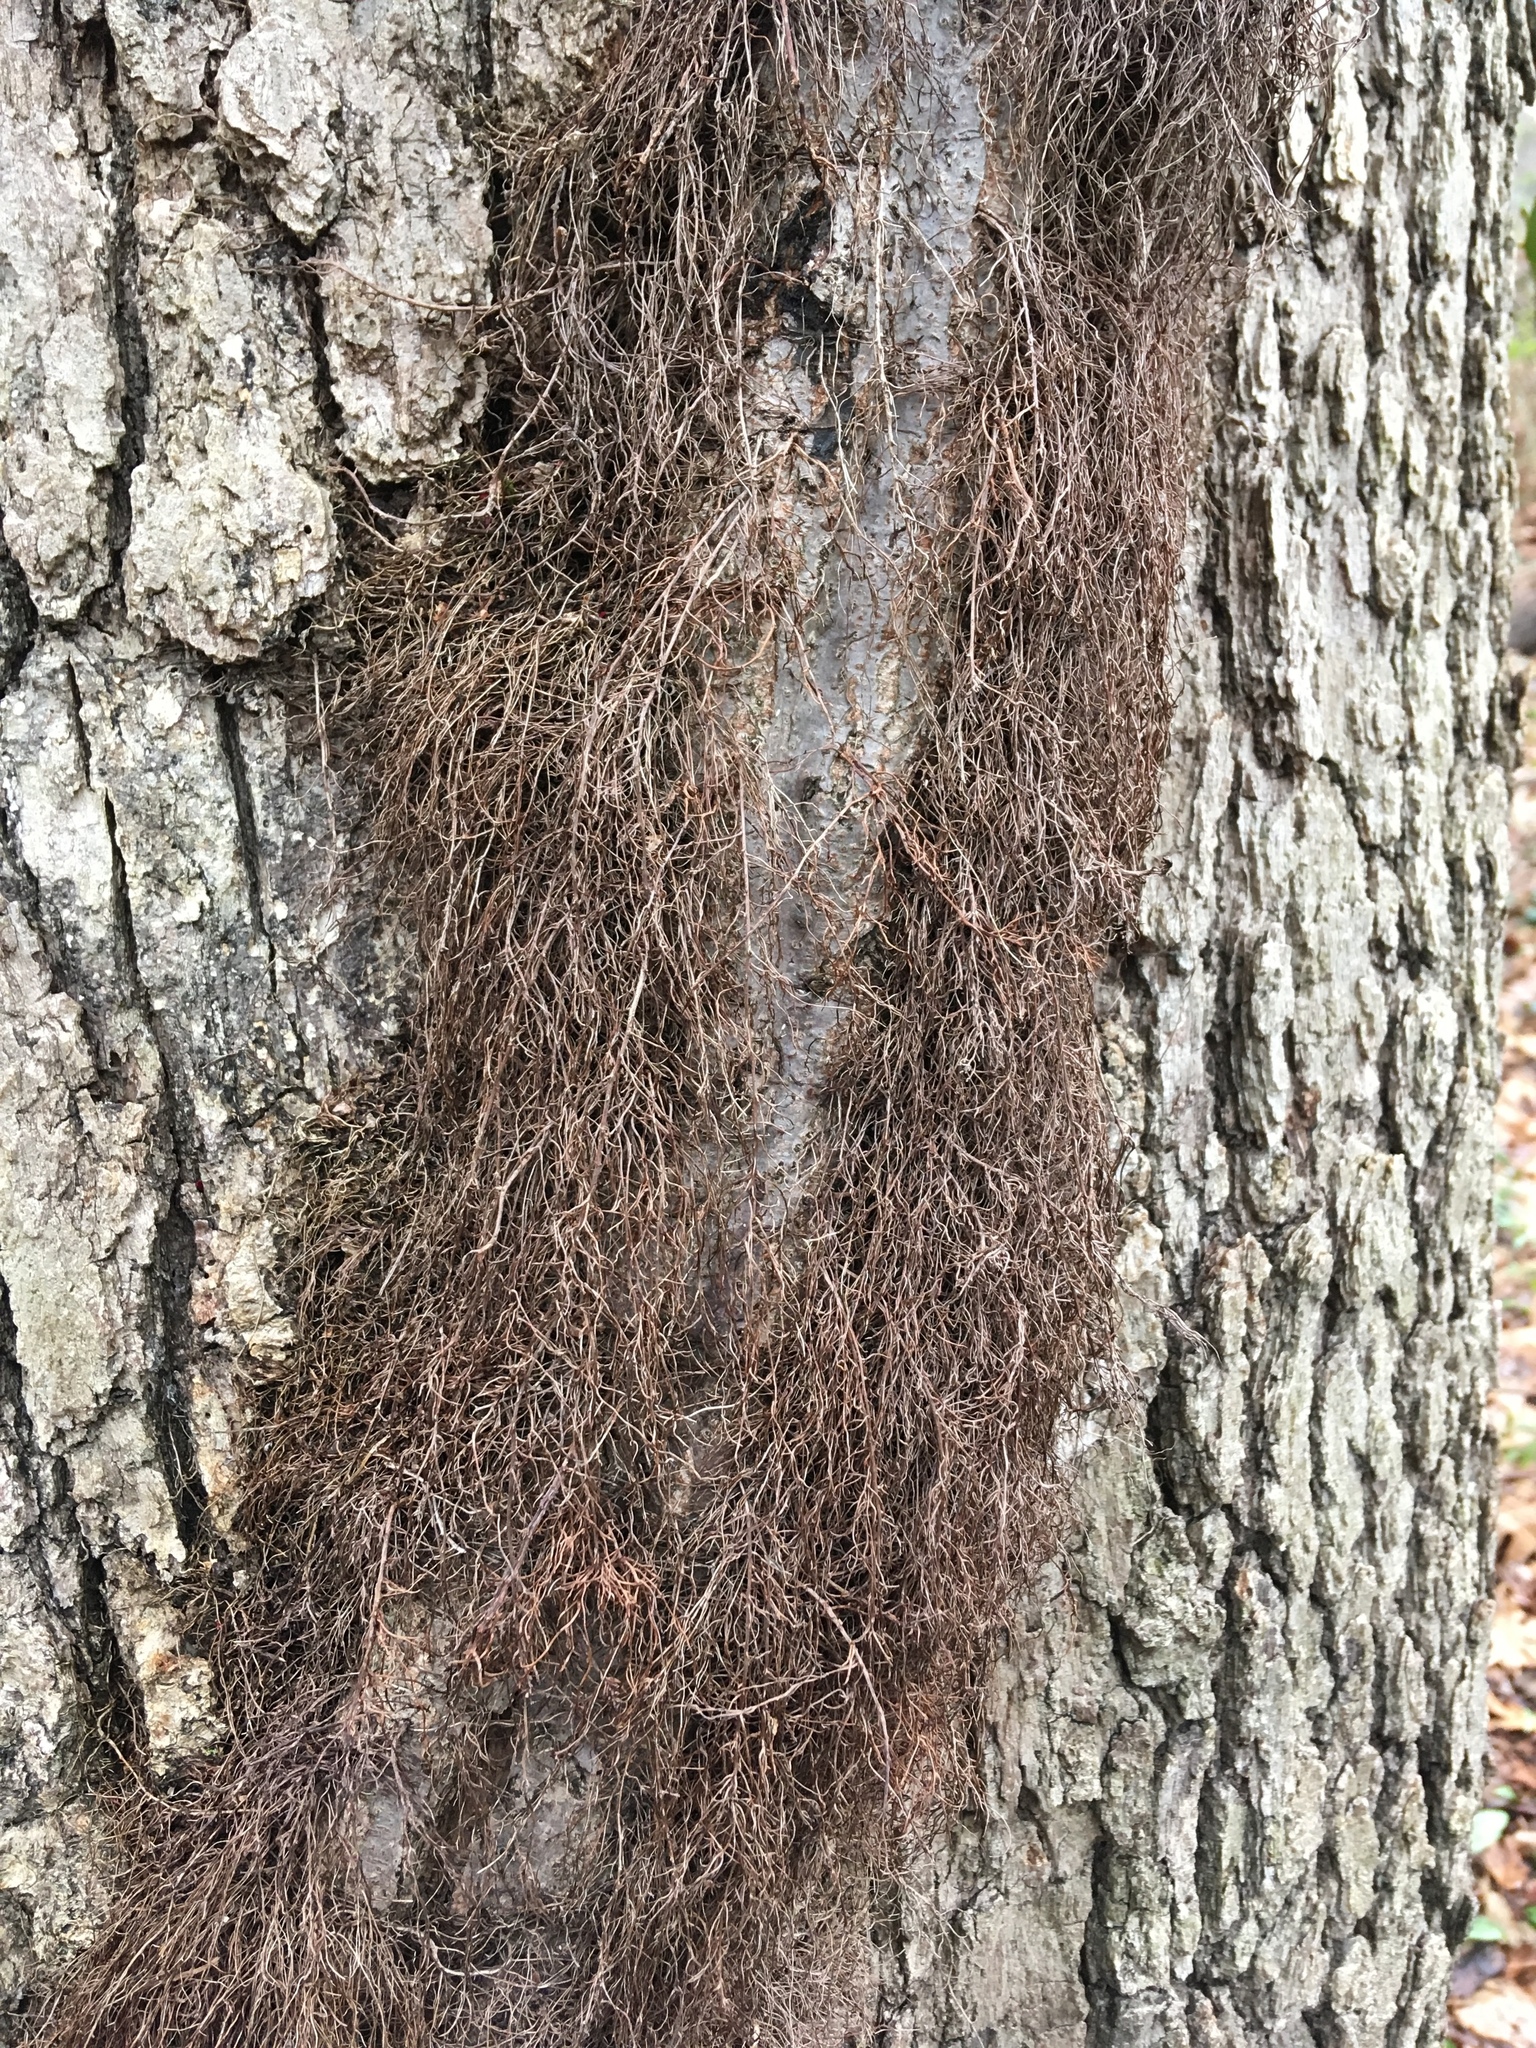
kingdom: Plantae
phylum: Tracheophyta
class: Magnoliopsida
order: Sapindales
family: Anacardiaceae
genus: Toxicodendron
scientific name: Toxicodendron radicans
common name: Poison ivy
